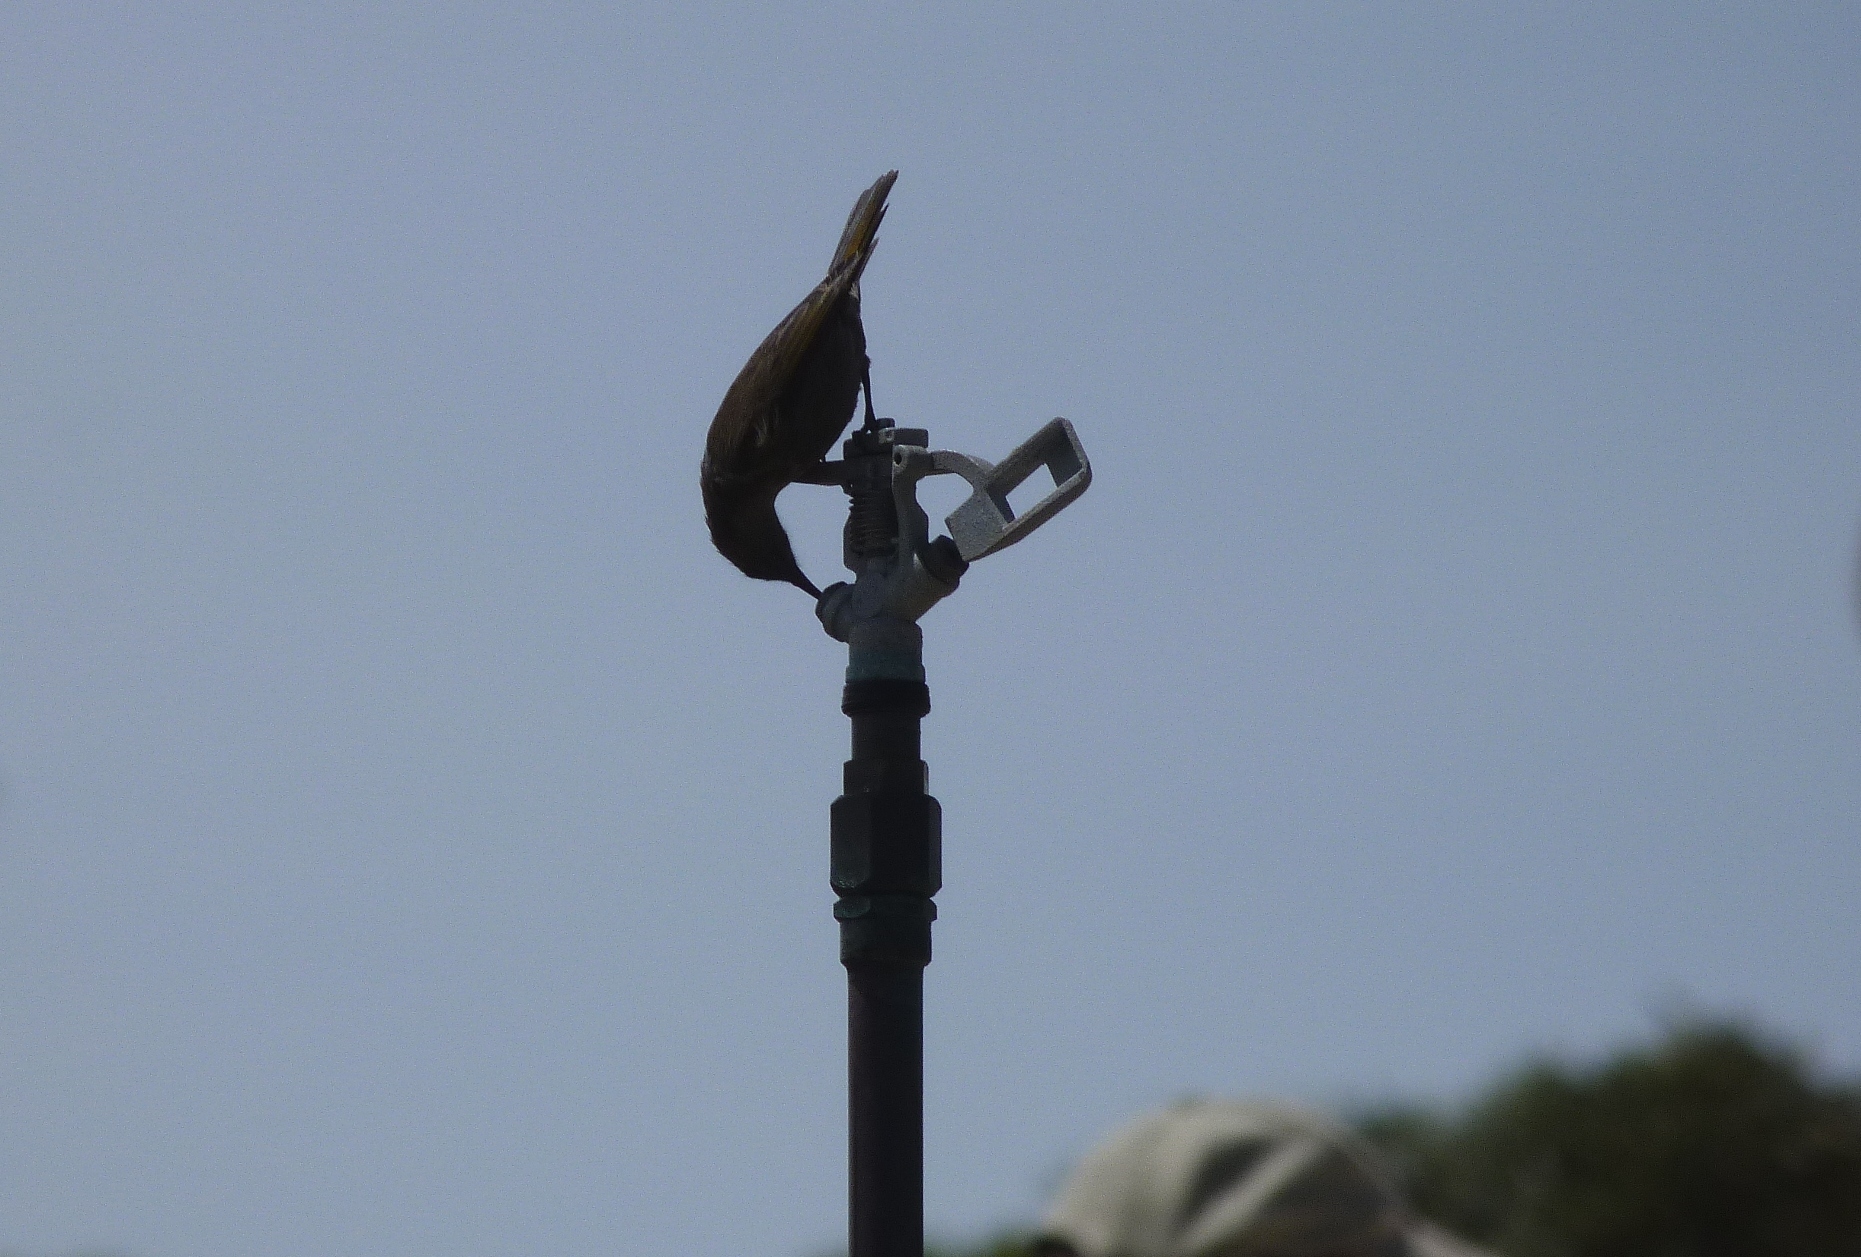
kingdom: Animalia
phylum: Chordata
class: Aves
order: Passeriformes
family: Meliphagidae
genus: Gavicalis
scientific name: Gavicalis virescens
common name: Singing honeyeater
